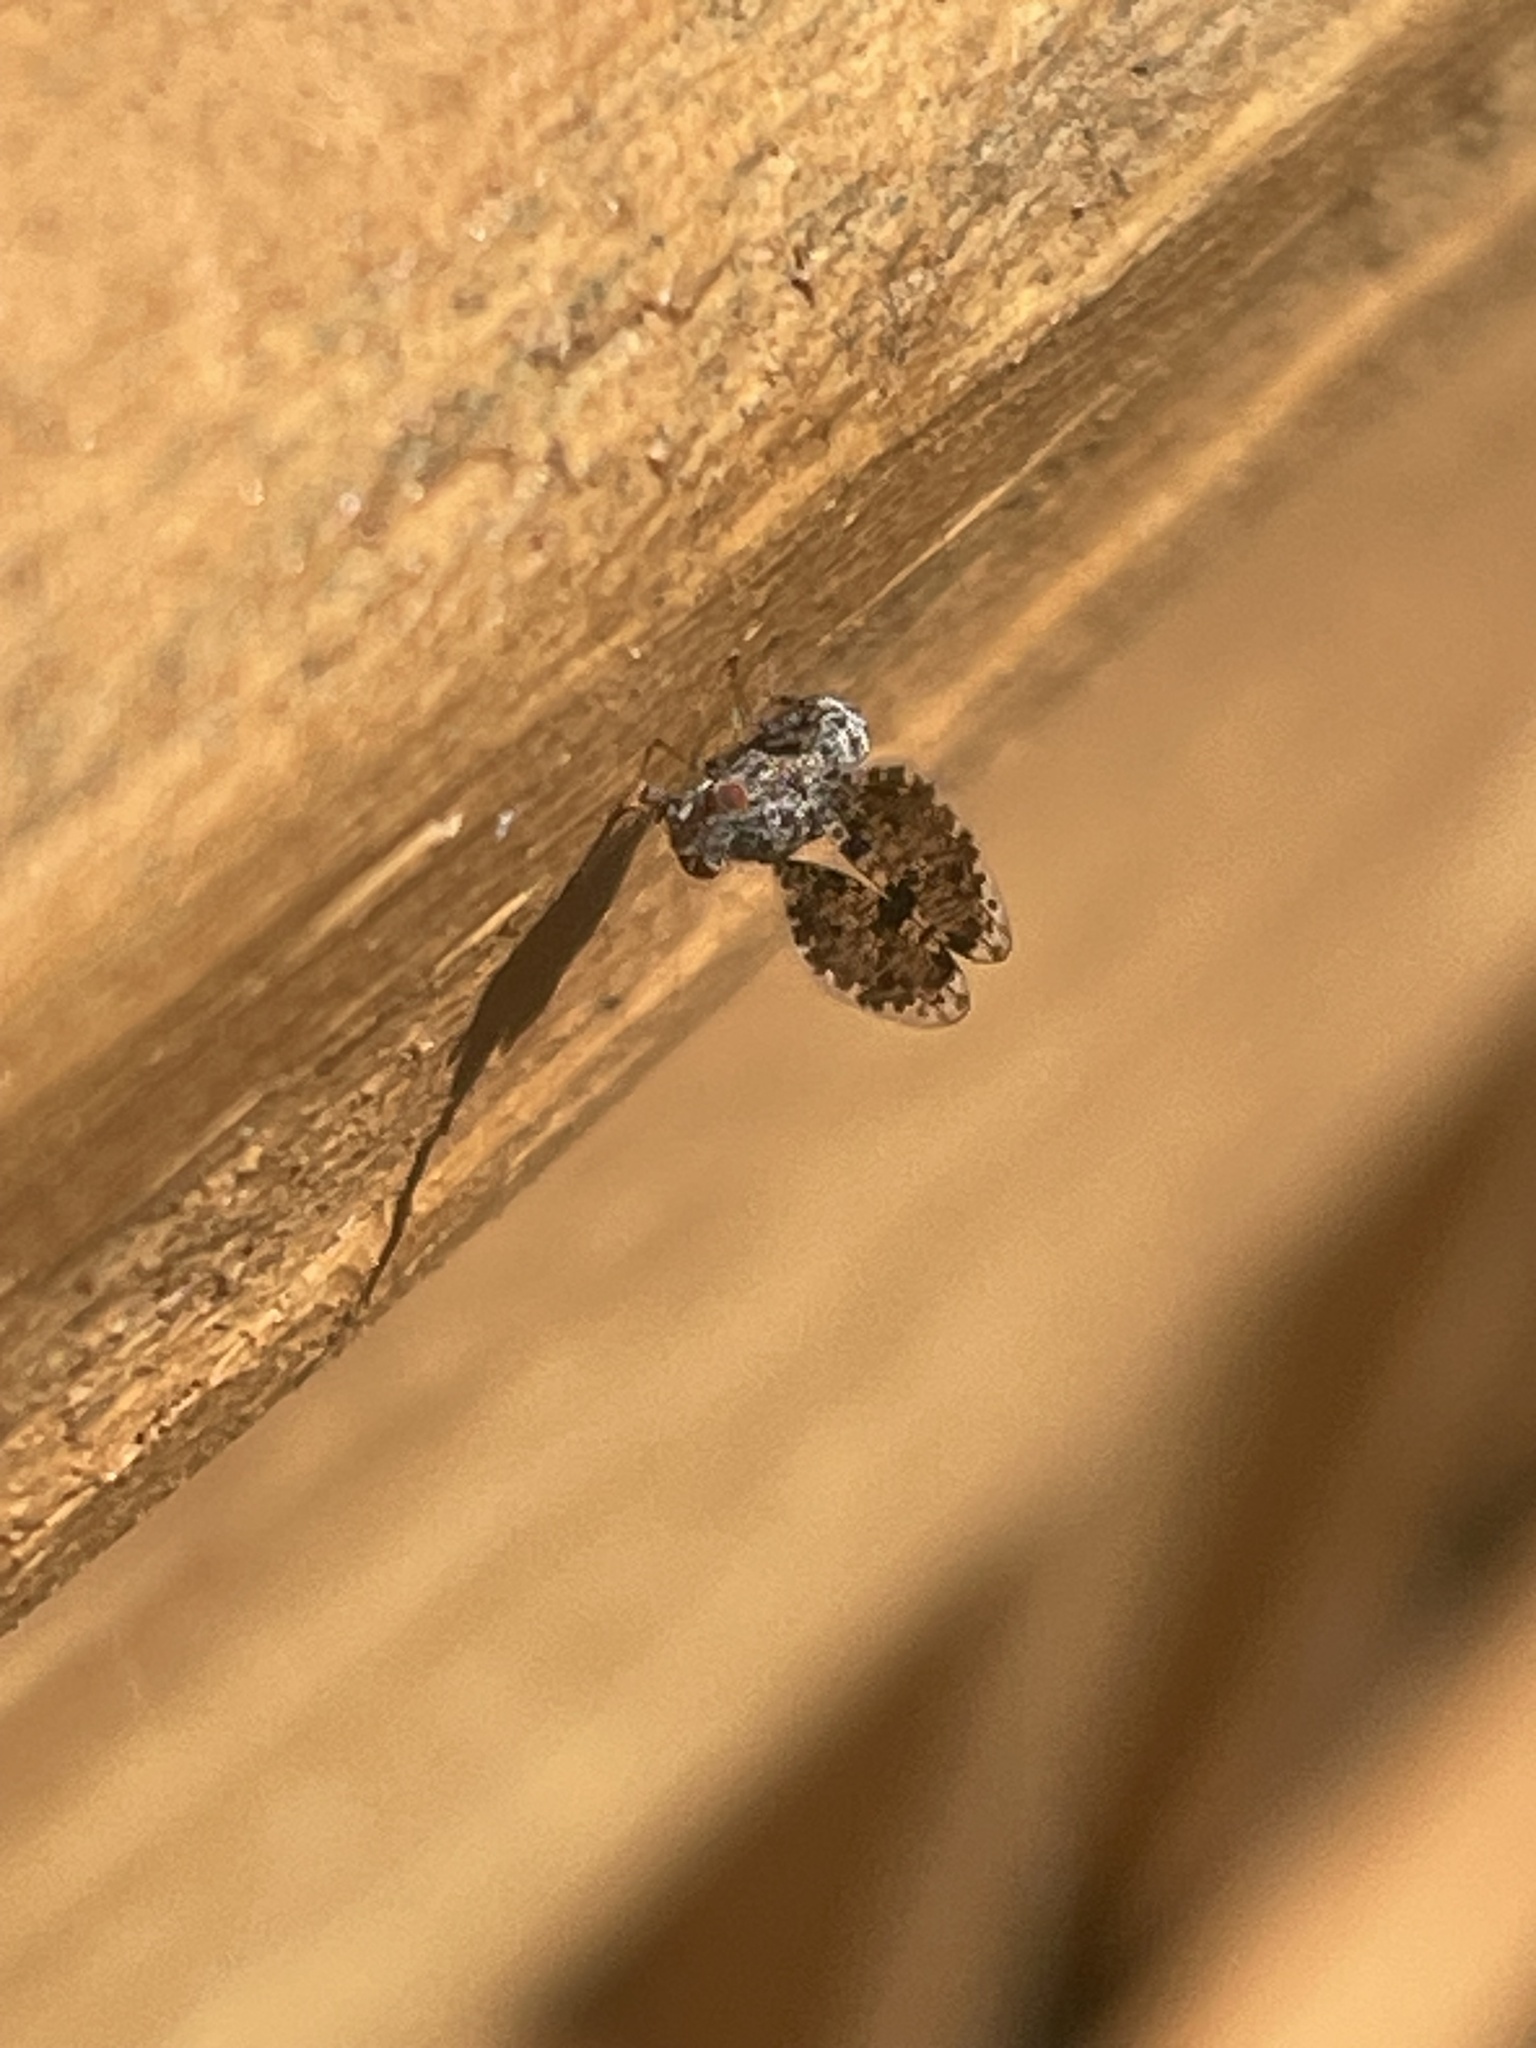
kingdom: Animalia
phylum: Arthropoda
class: Insecta
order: Diptera
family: Ulidiidae
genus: Callopistromyia
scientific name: Callopistromyia annulipes
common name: Peacock fly
